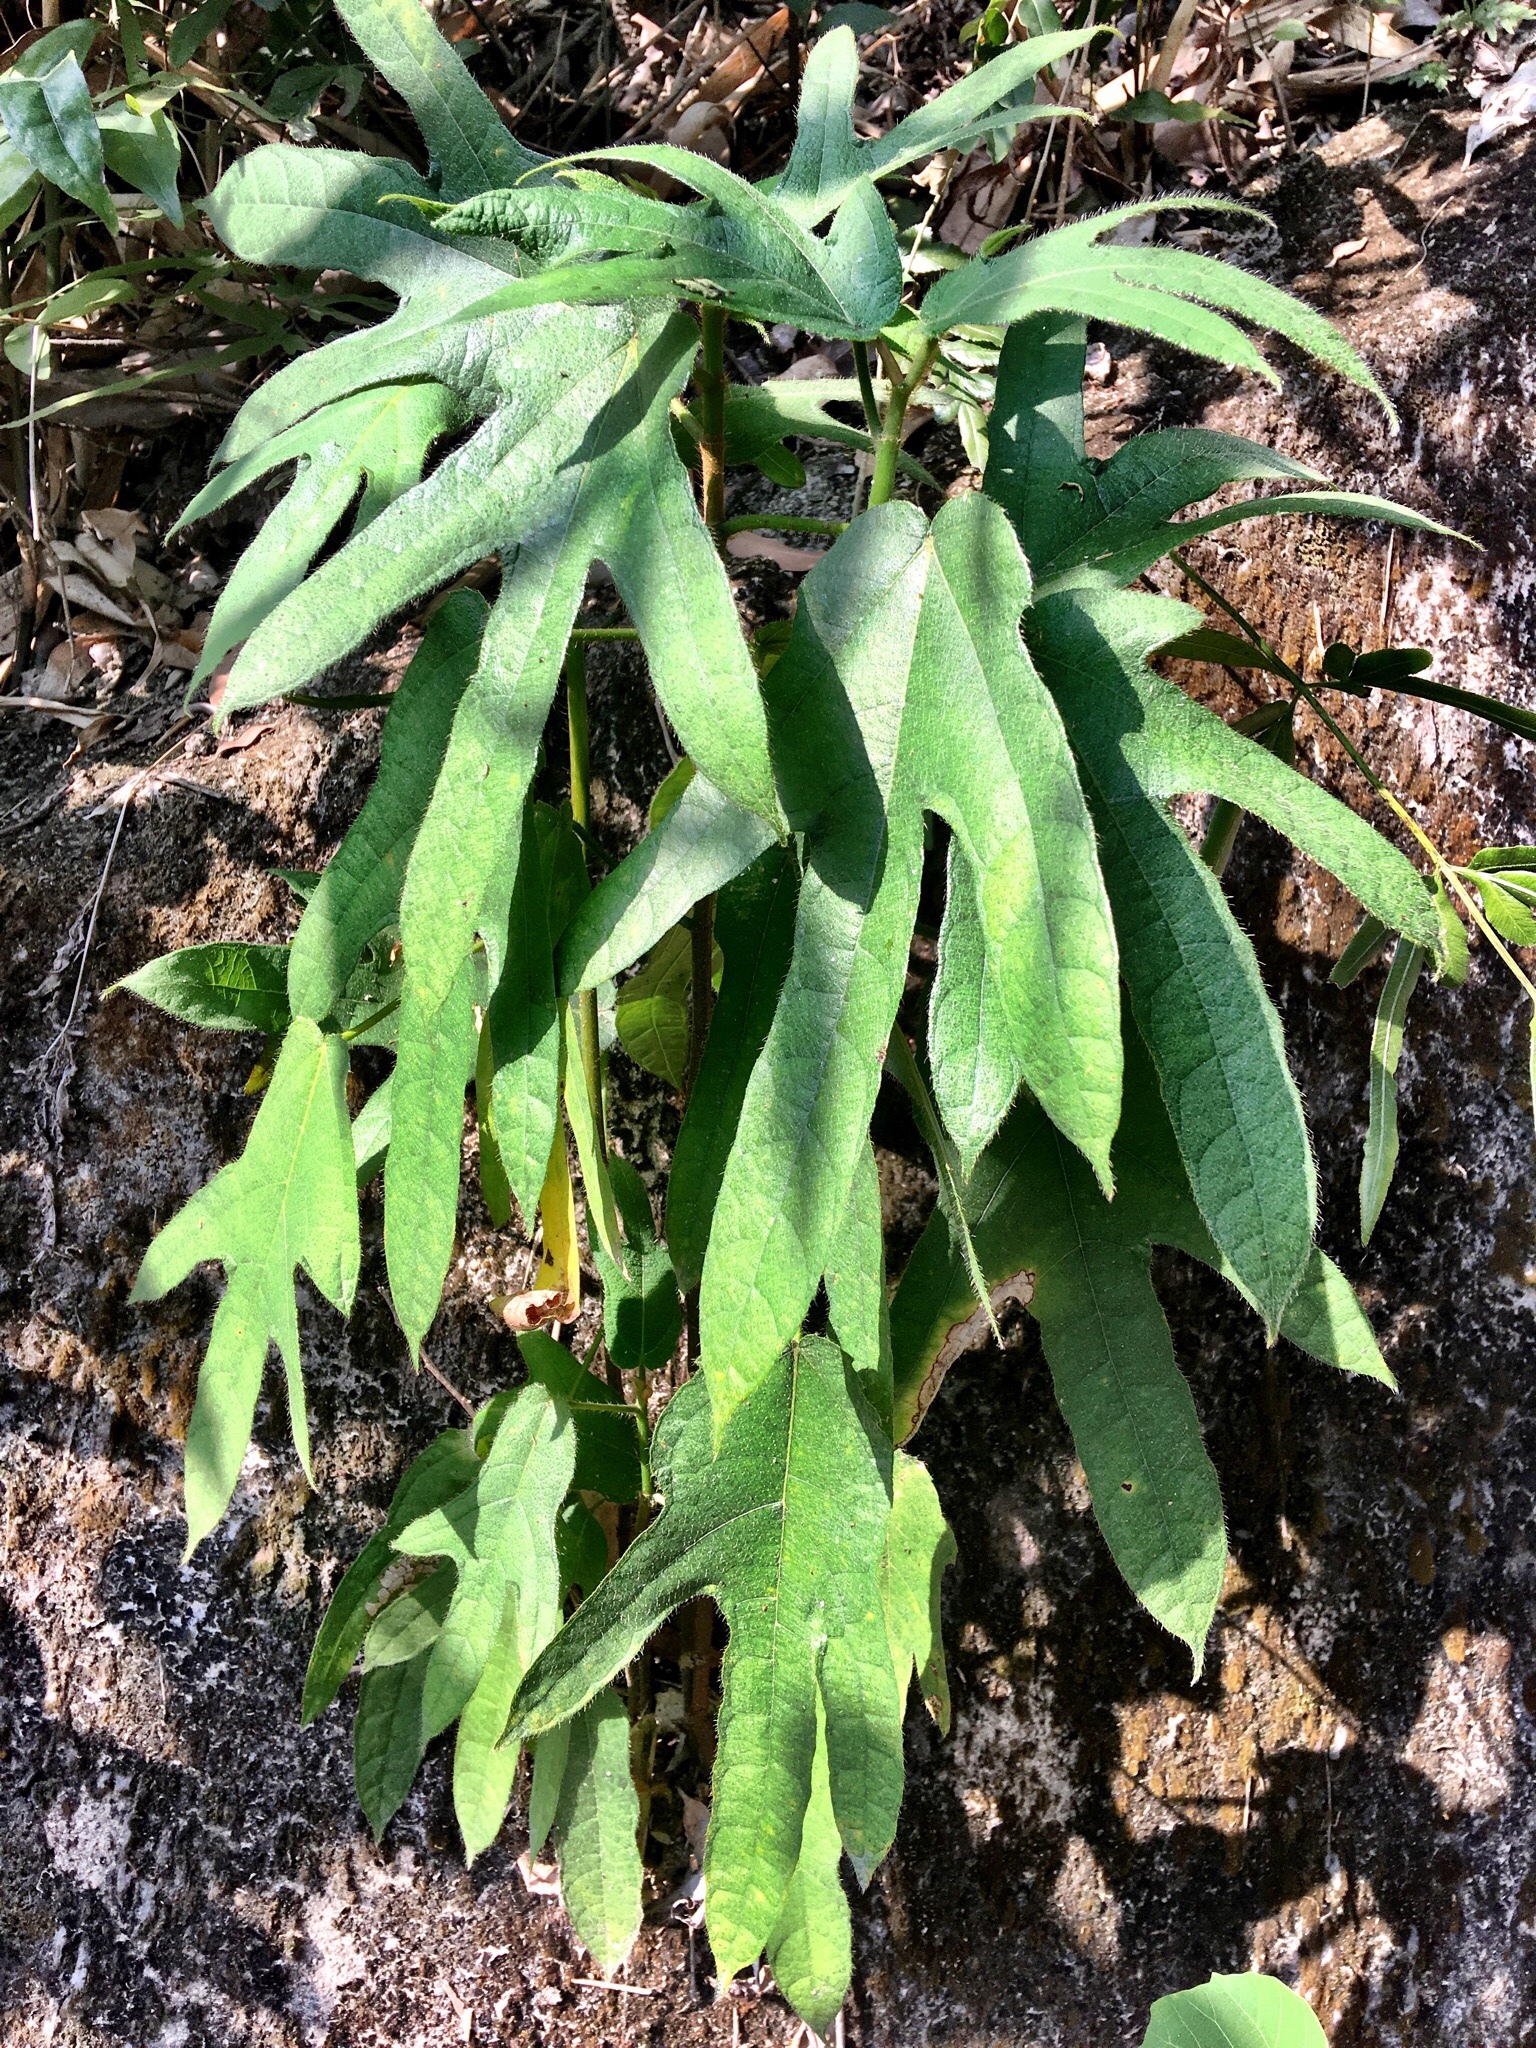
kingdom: Plantae
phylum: Tracheophyta
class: Magnoliopsida
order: Rosales
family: Moraceae
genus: Ficus
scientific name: Ficus simplicissima
